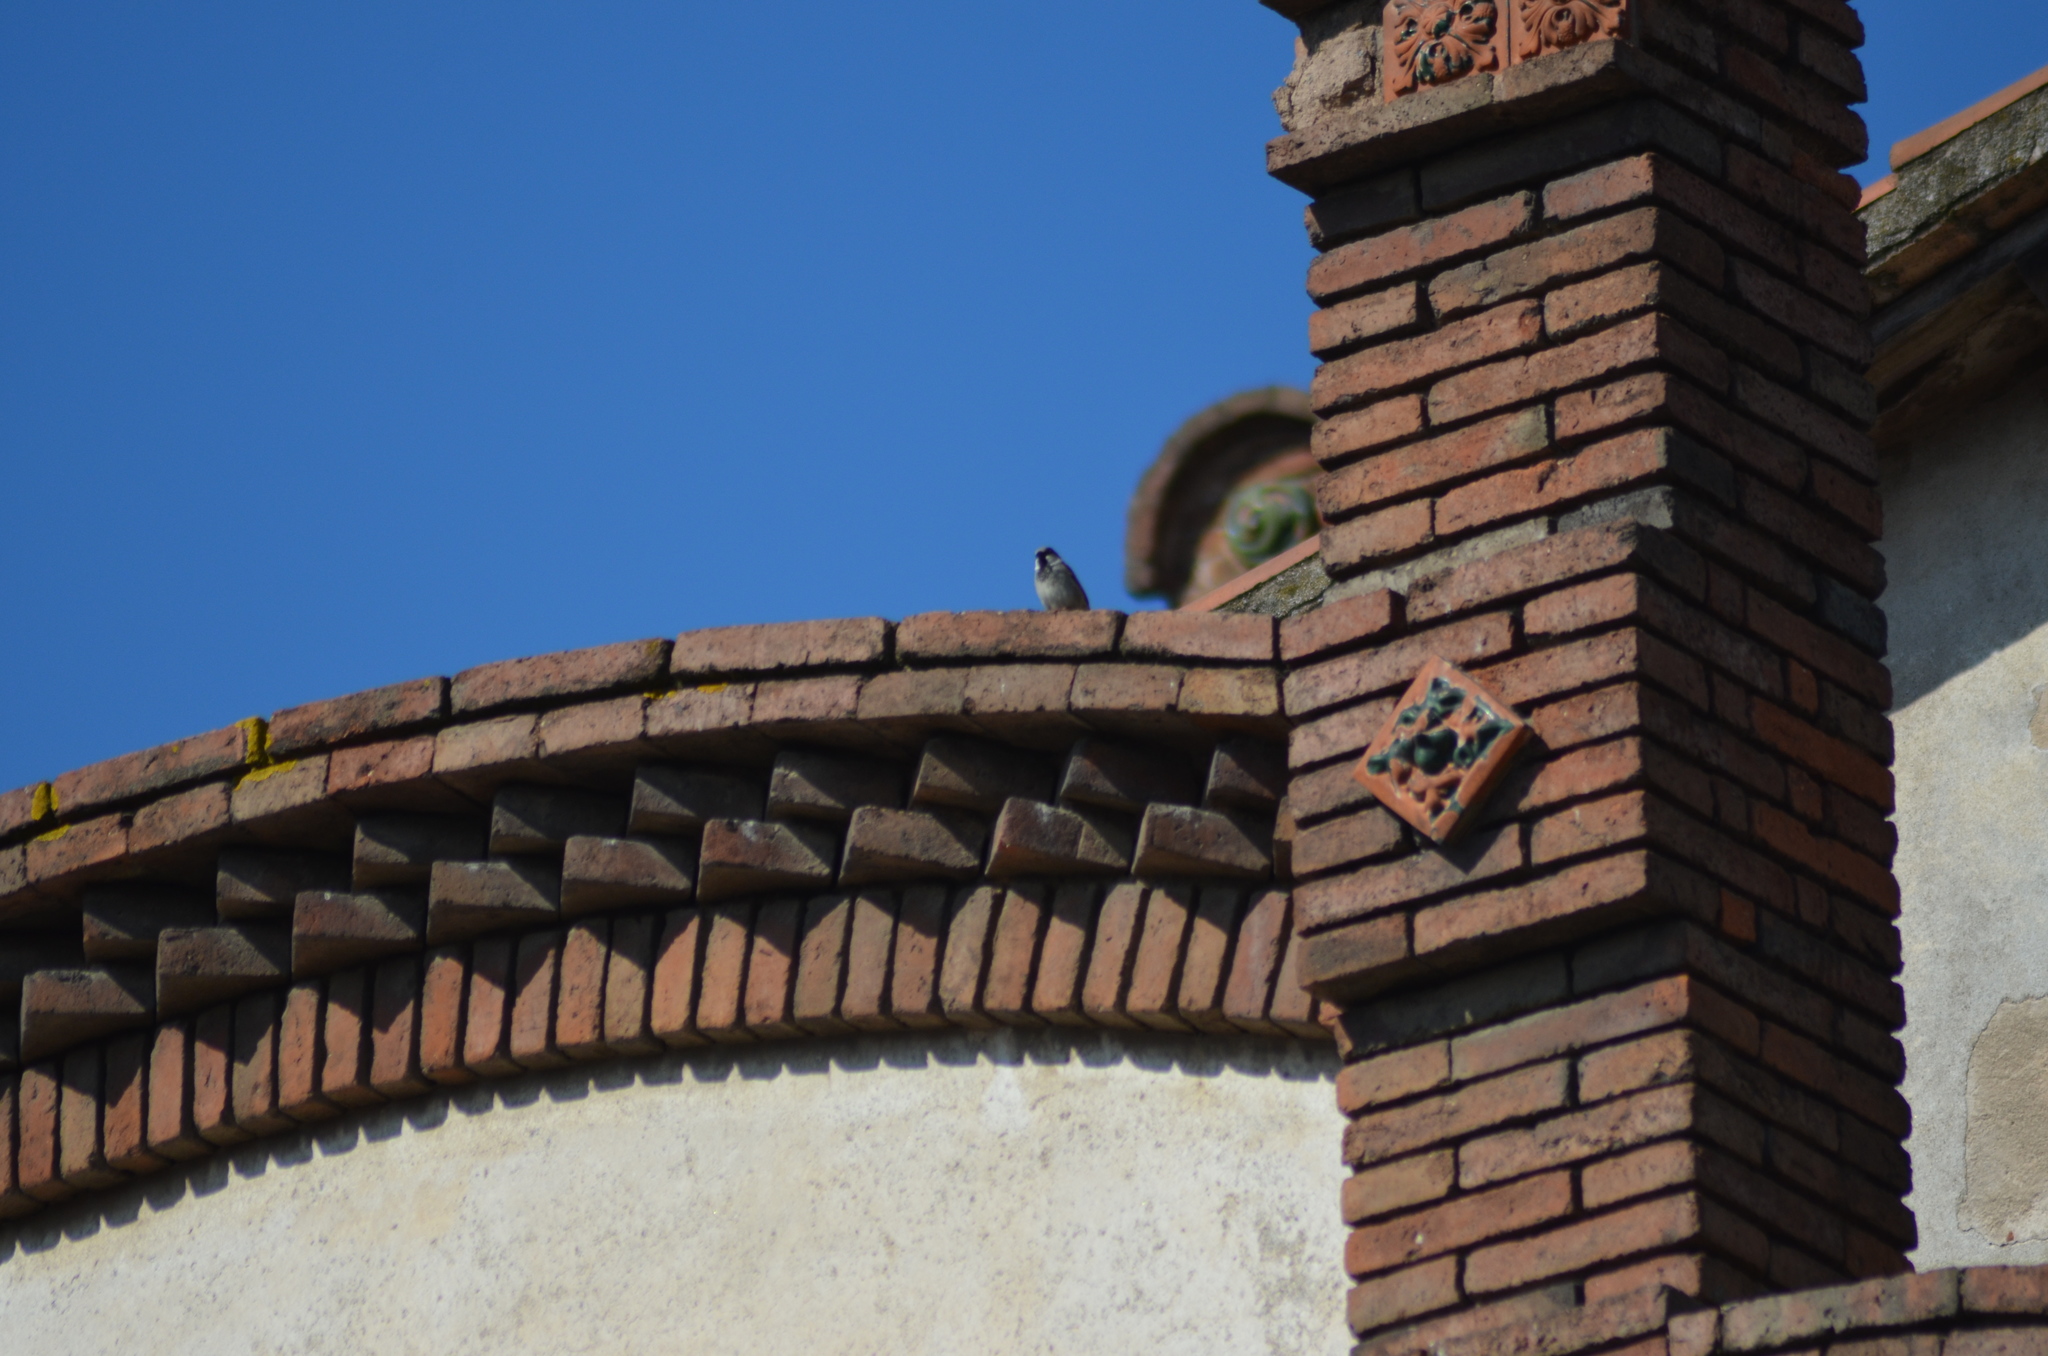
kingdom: Animalia
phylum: Chordata
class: Aves
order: Passeriformes
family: Passeridae
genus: Passer
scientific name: Passer domesticus
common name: House sparrow
